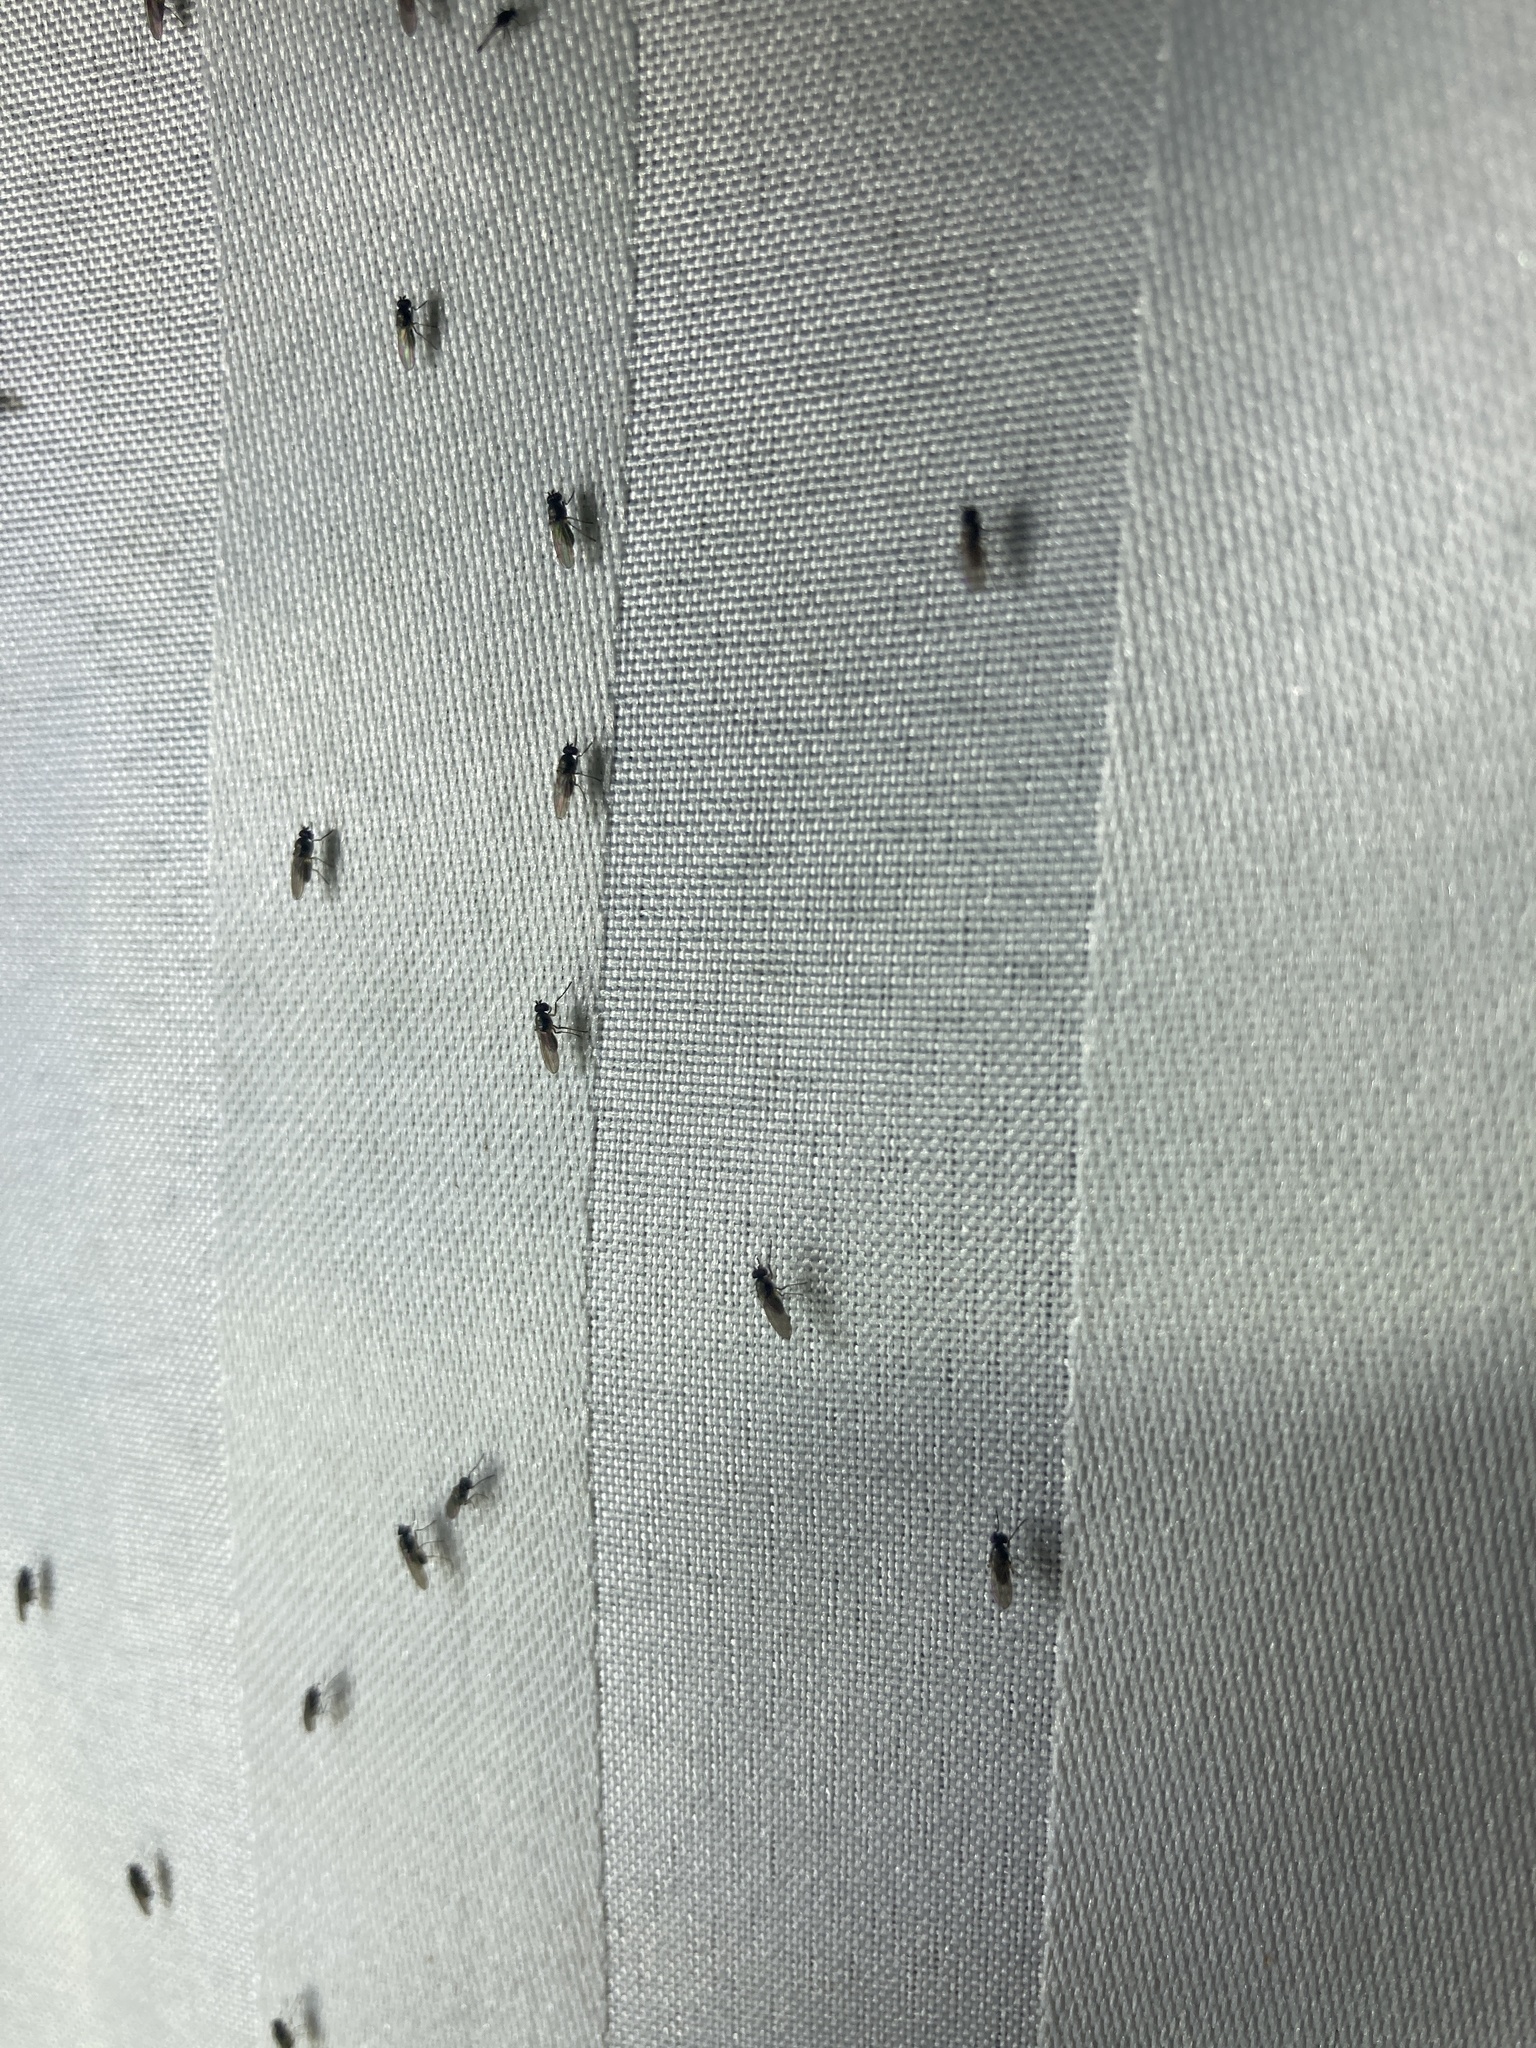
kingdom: Animalia
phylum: Arthropoda
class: Insecta
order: Diptera
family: Ephydridae
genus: Hydrellia
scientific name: Hydrellia tritici
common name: Shore fly
